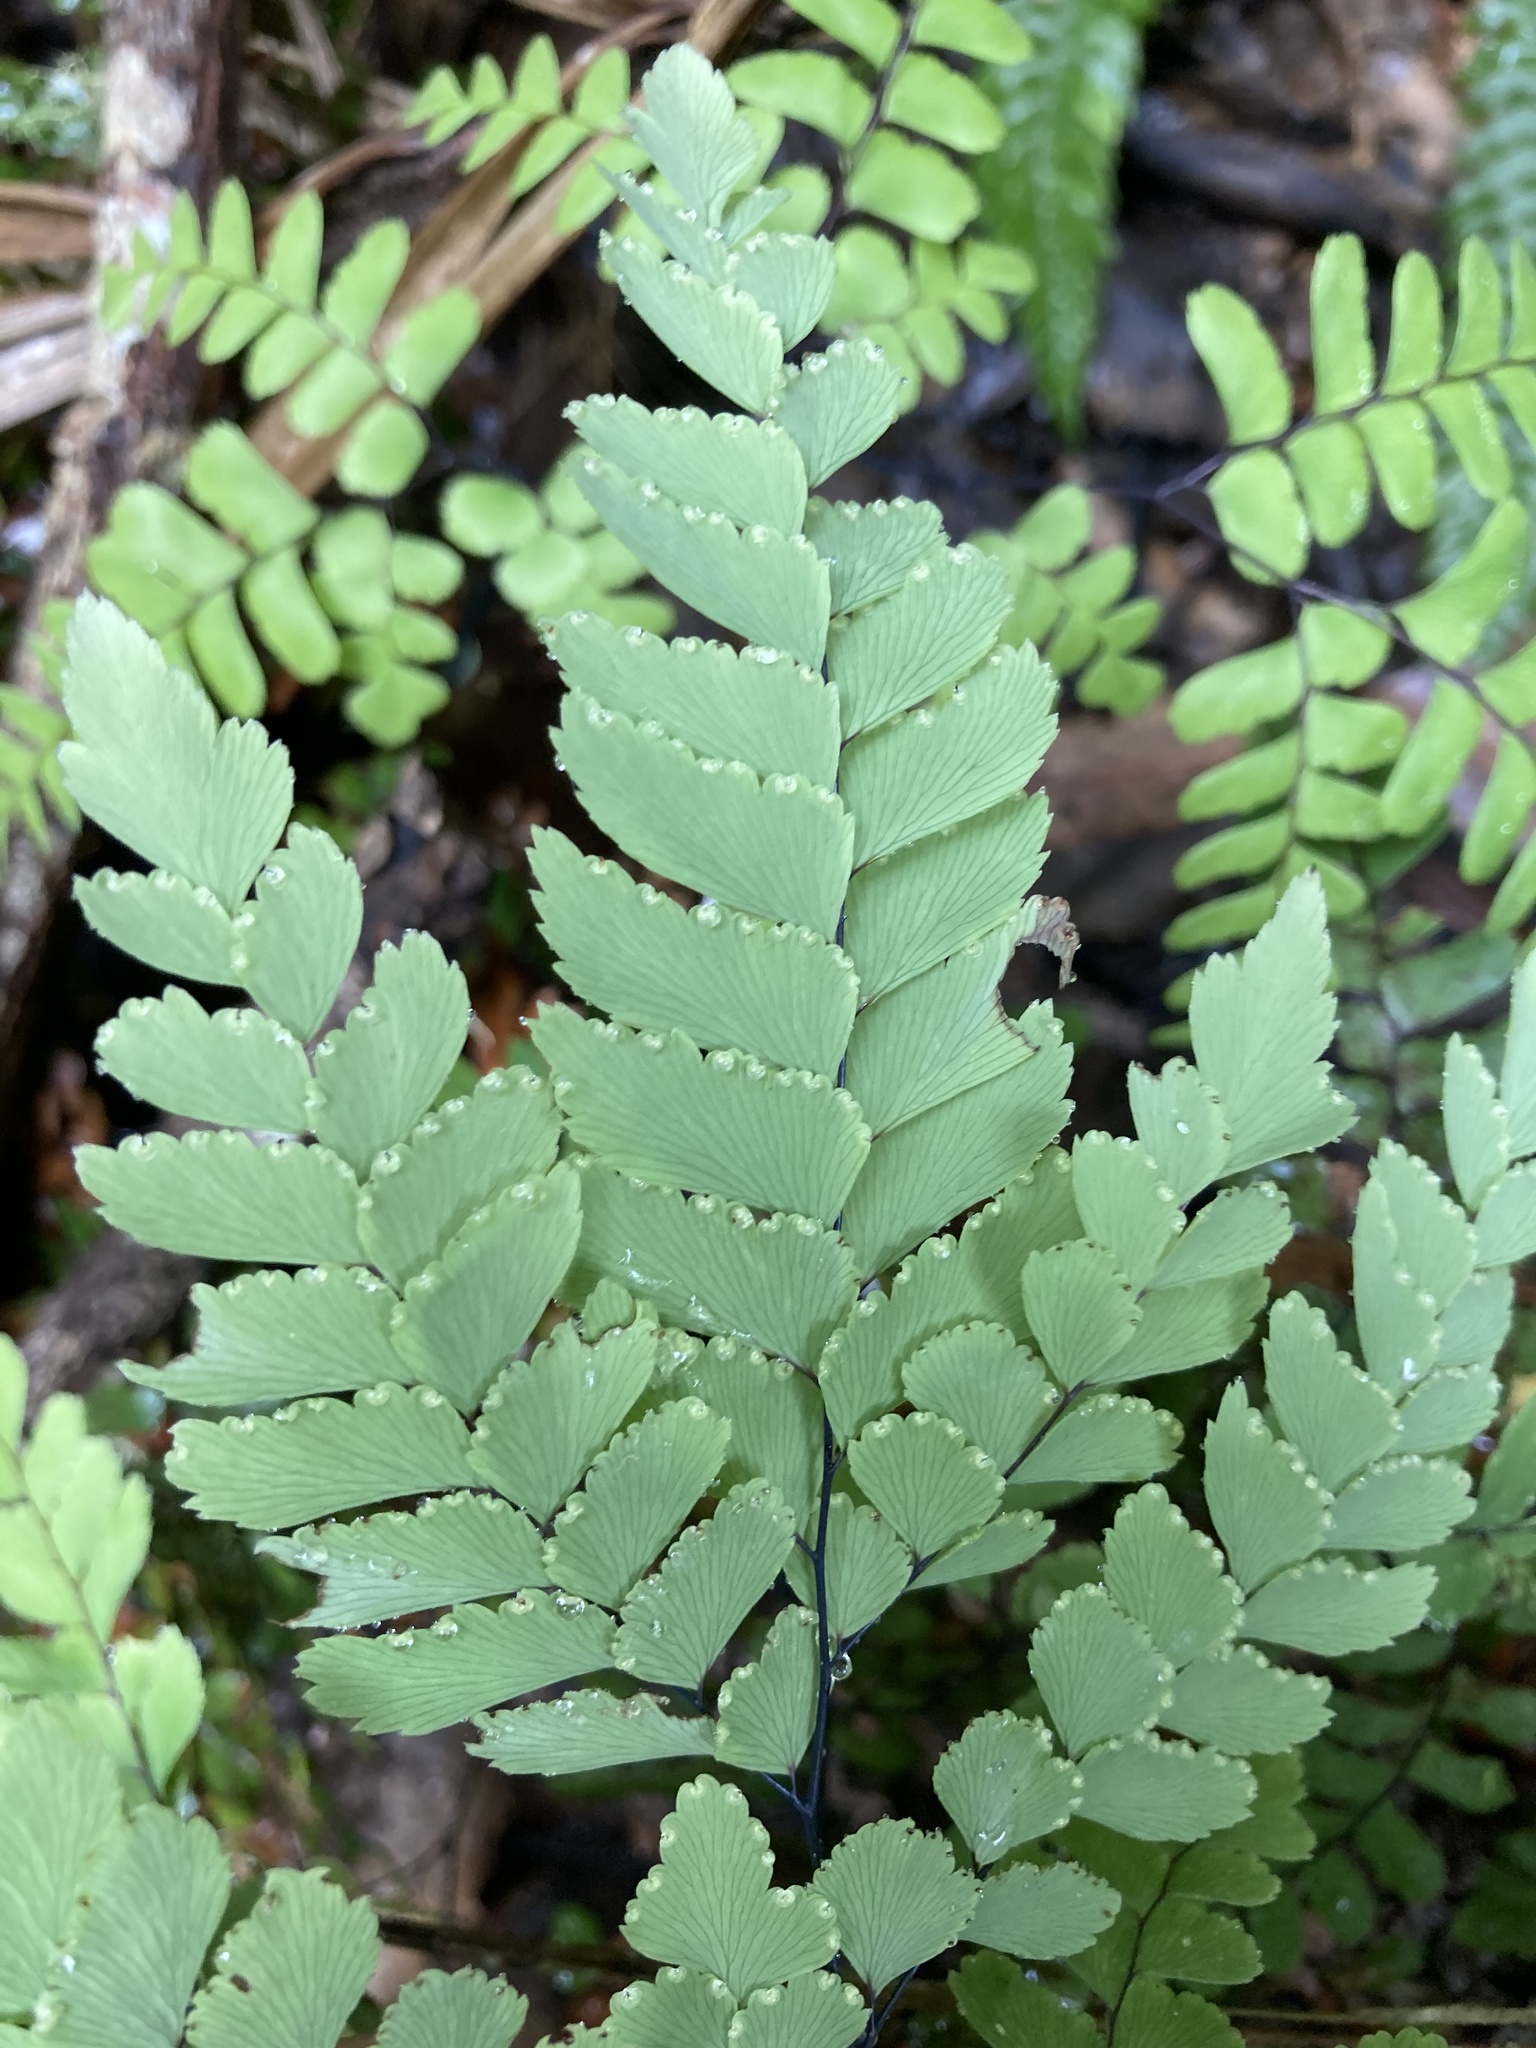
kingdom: Plantae
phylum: Tracheophyta
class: Polypodiopsida
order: Polypodiales
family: Pteridaceae
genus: Adiantum
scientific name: Adiantum cunninghamii
